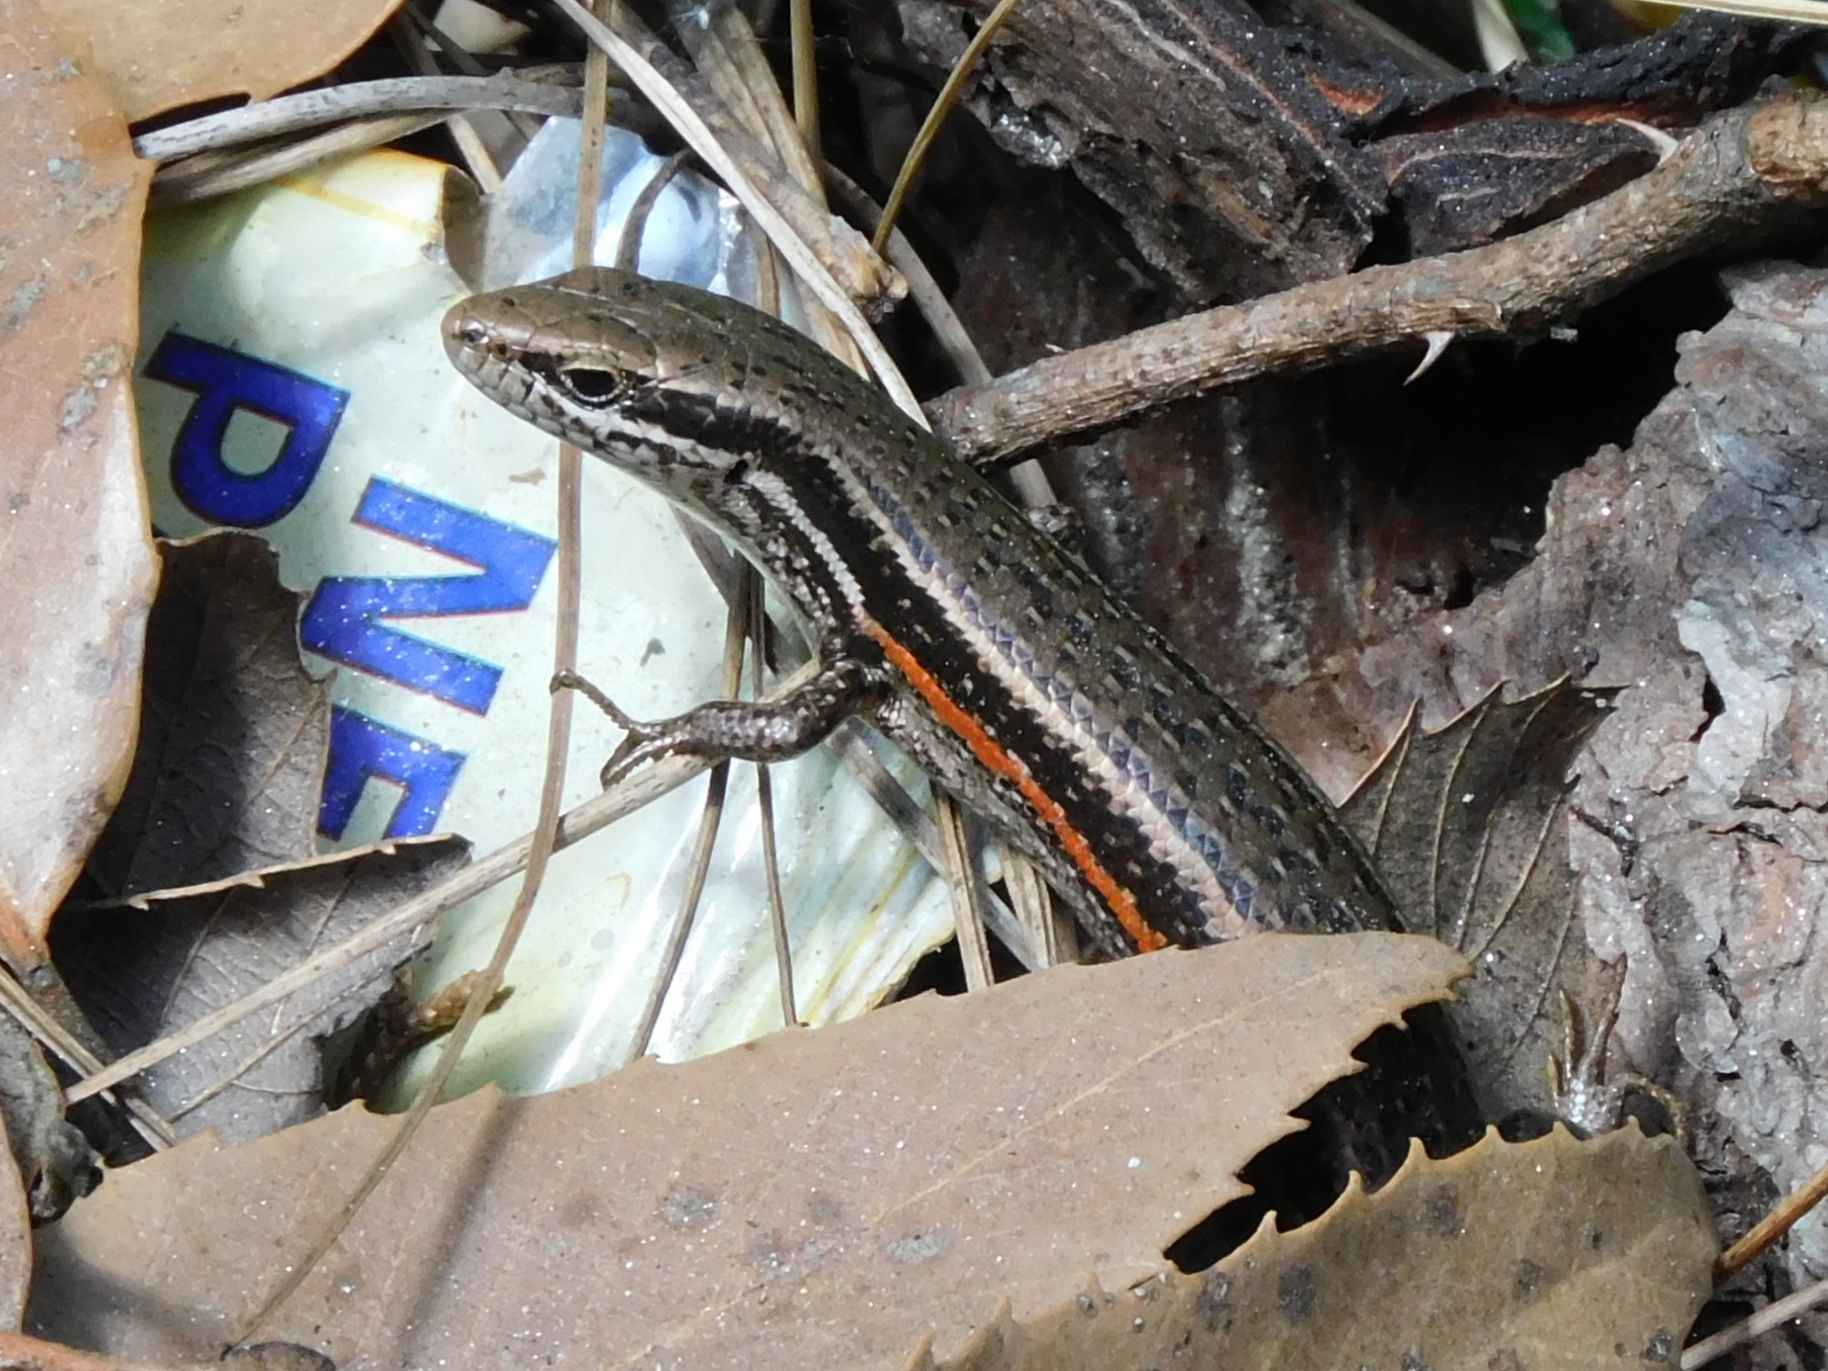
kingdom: Animalia
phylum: Chordata
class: Squamata
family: Scincidae
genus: Asymblepharus
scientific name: Asymblepharus himalayanus
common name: Himalaya ground skink
